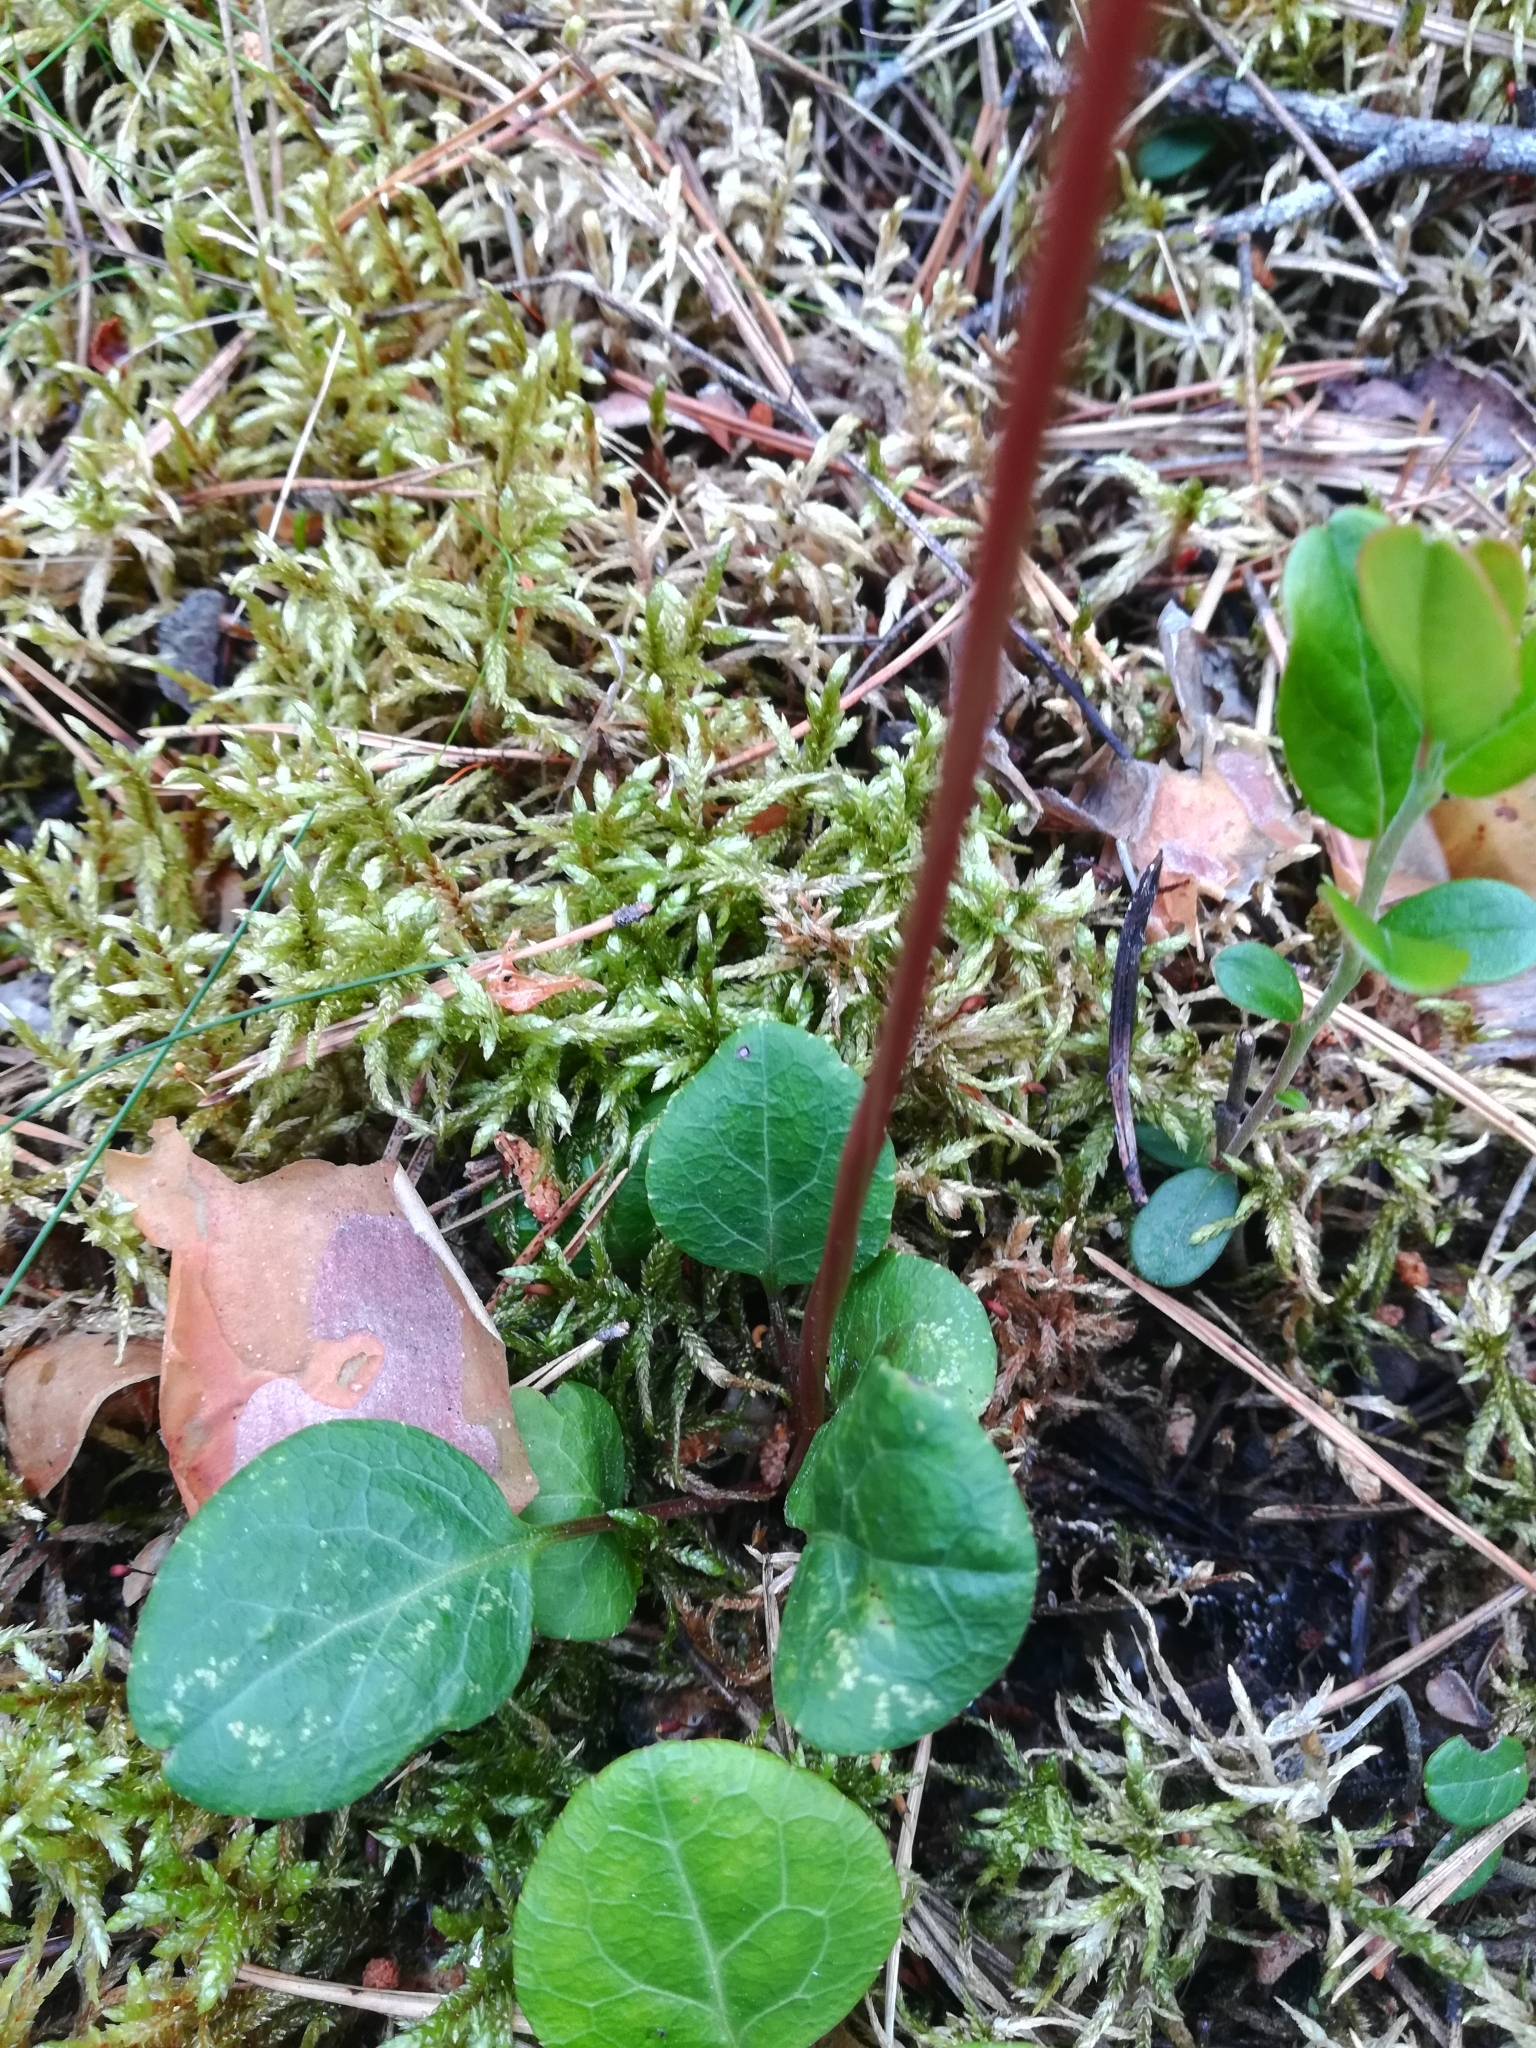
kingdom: Plantae
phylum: Tracheophyta
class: Magnoliopsida
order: Ericales
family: Ericaceae
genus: Pyrola
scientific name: Pyrola chlorantha
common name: Green wintergreen
